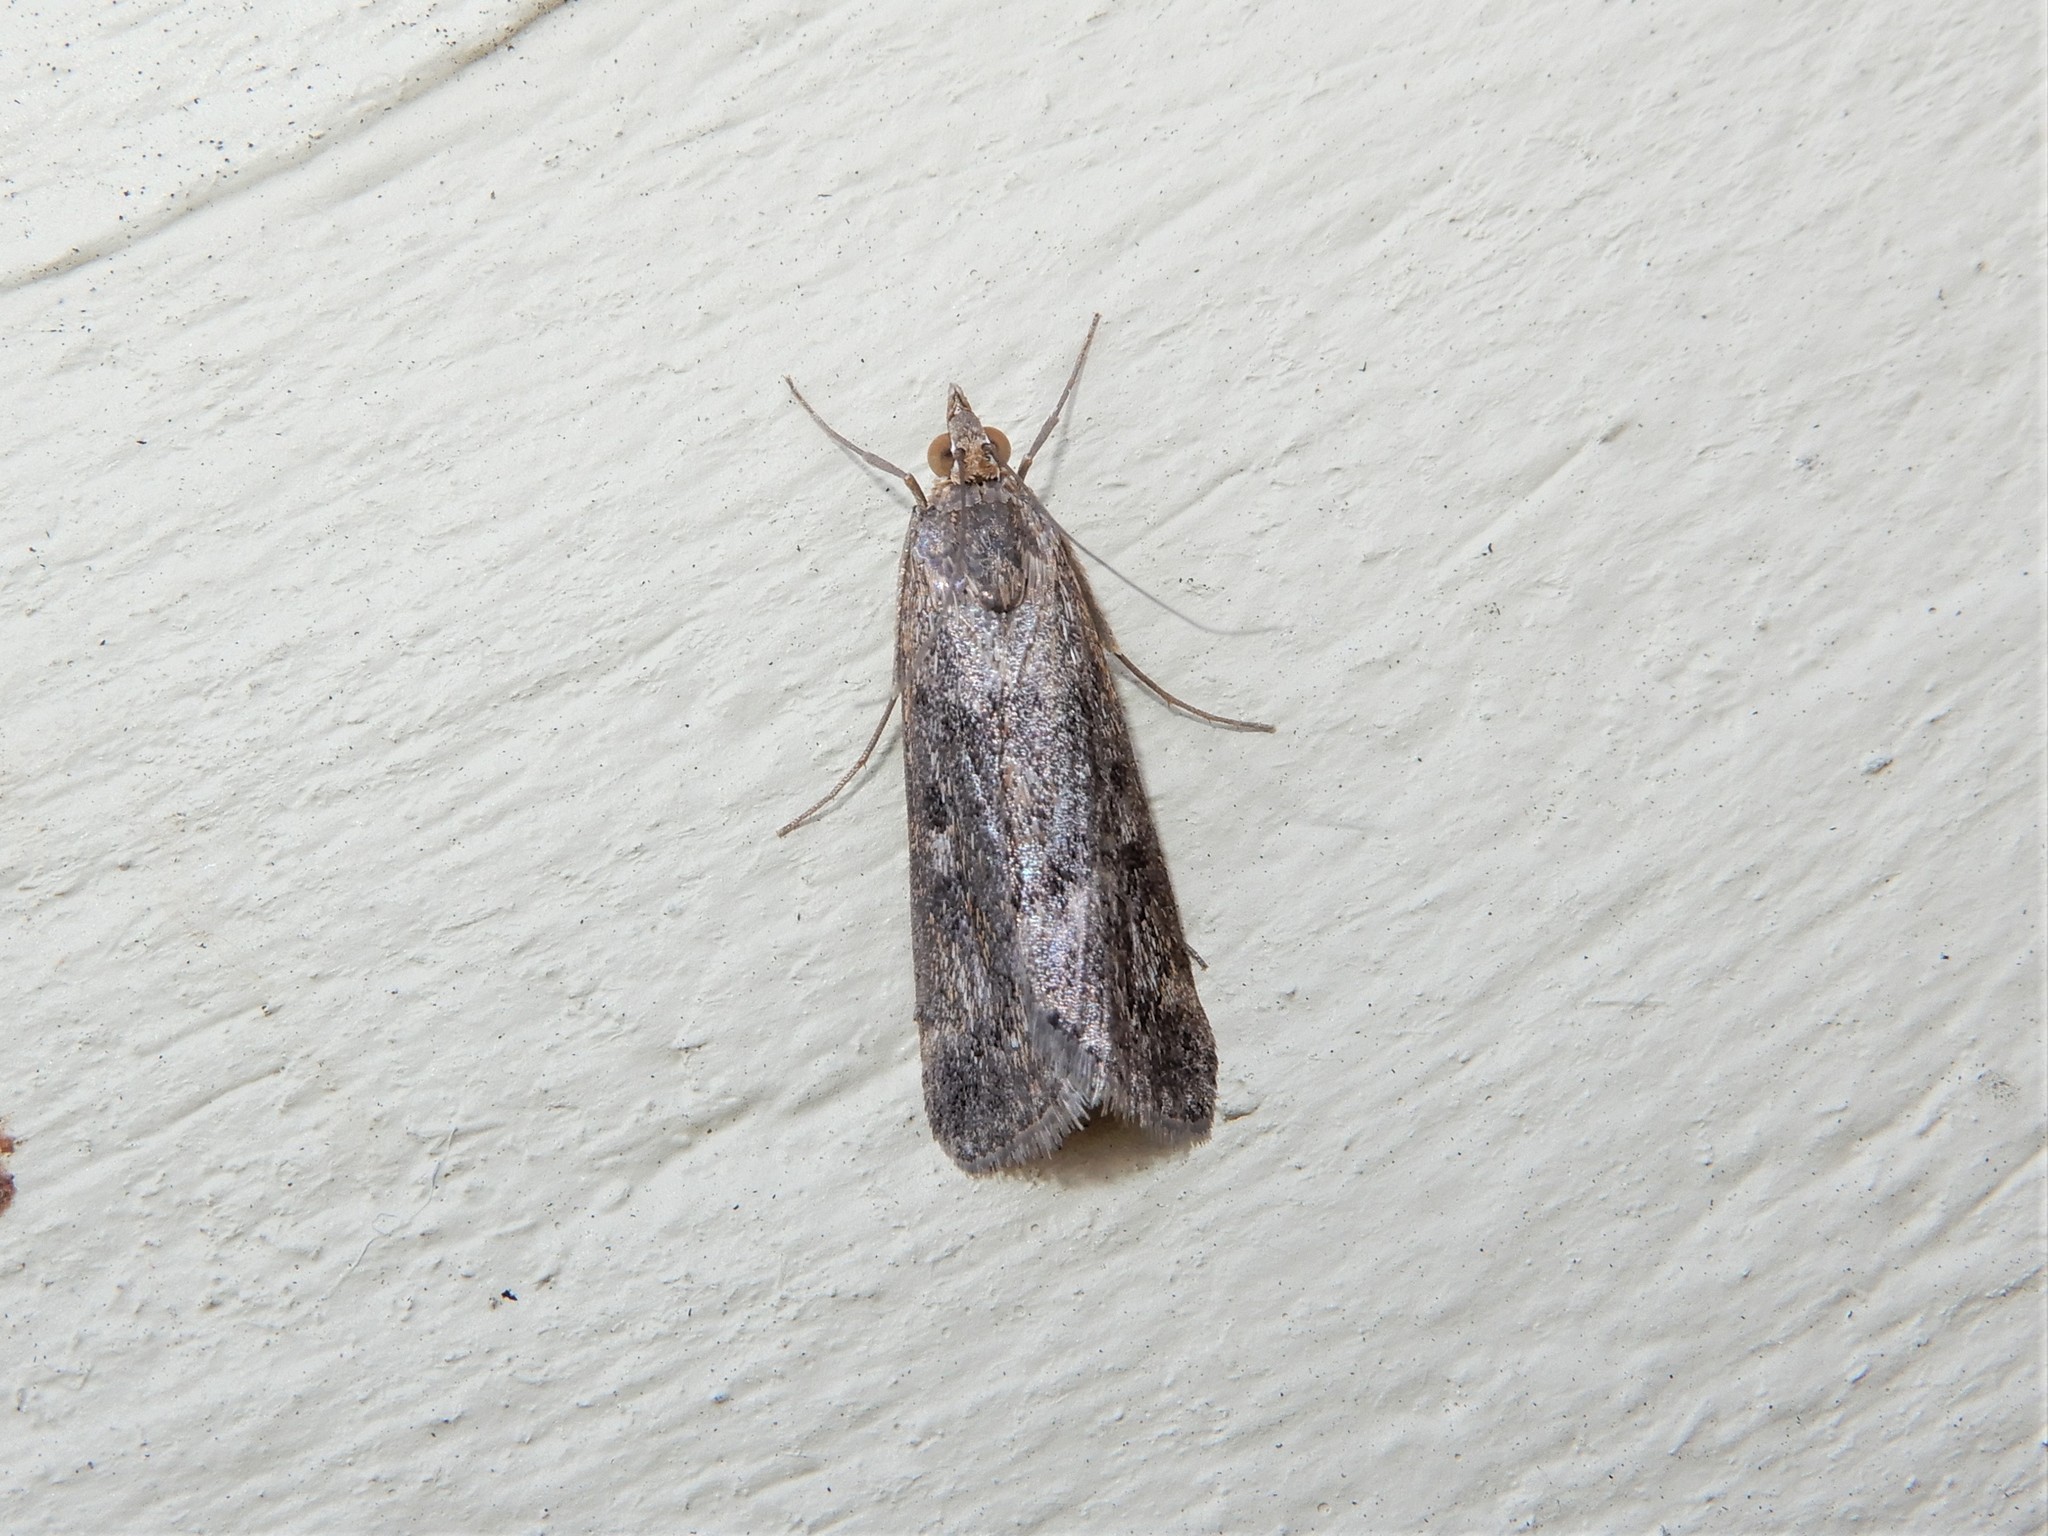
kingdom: Animalia
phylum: Arthropoda
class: Insecta
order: Lepidoptera
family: Crambidae
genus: Achyra
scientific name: Achyra affinitalis
